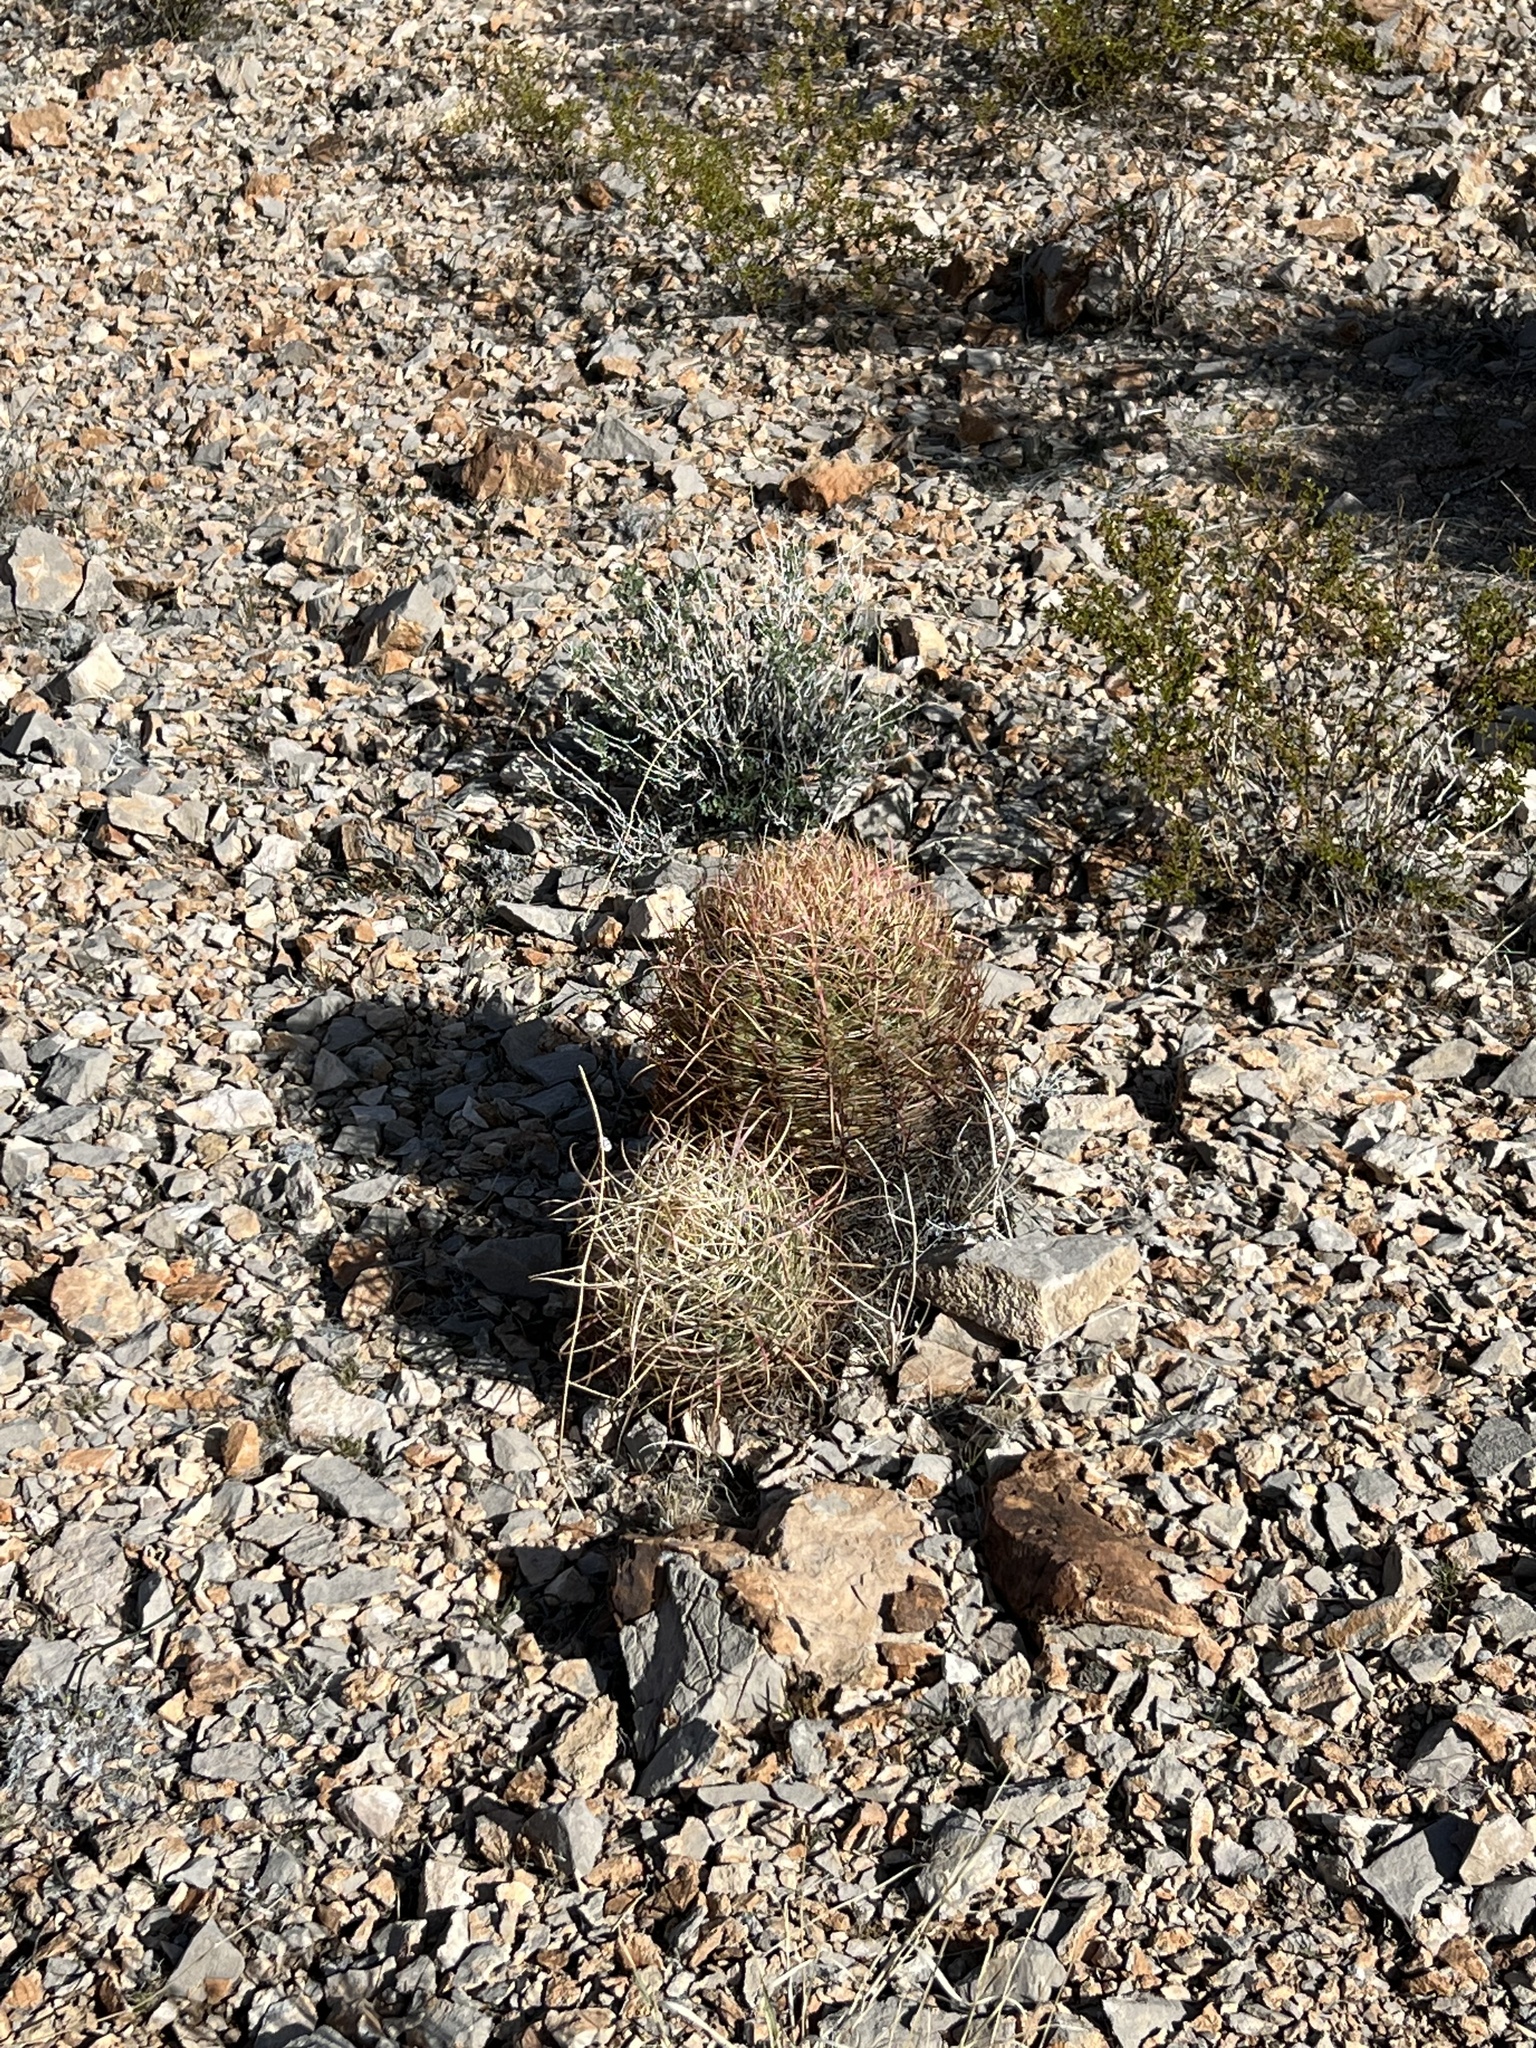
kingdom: Plantae
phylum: Tracheophyta
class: Magnoliopsida
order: Caryophyllales
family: Cactaceae
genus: Ferocactus
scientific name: Ferocactus cylindraceus
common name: California barrel cactus
